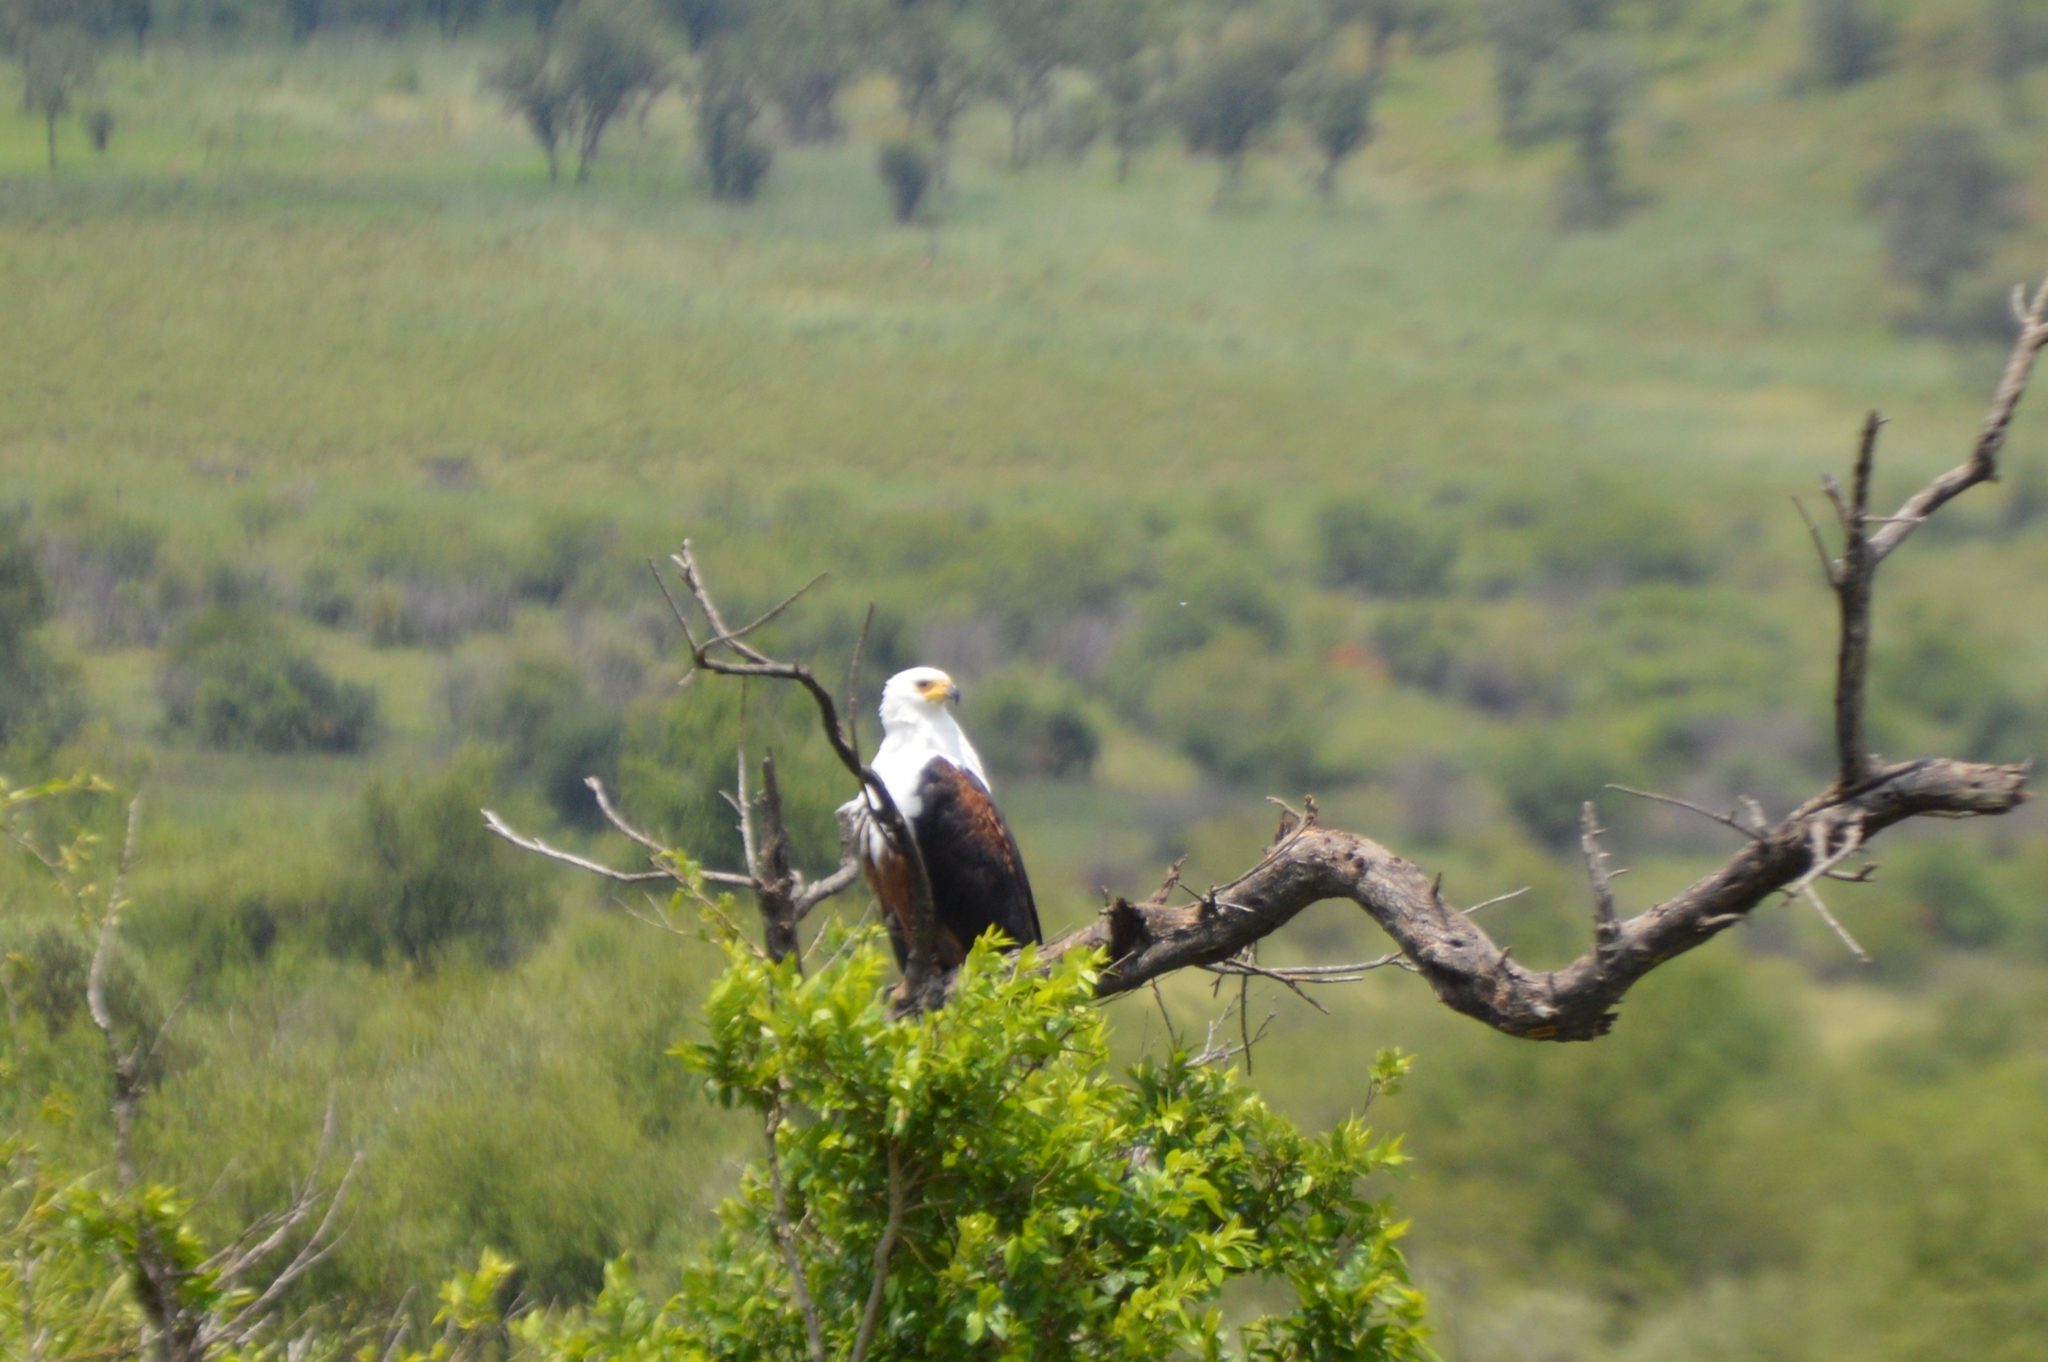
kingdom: Animalia
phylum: Chordata
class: Aves
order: Accipitriformes
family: Accipitridae
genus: Haliaeetus
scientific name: Haliaeetus vocifer
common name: African fish eagle
